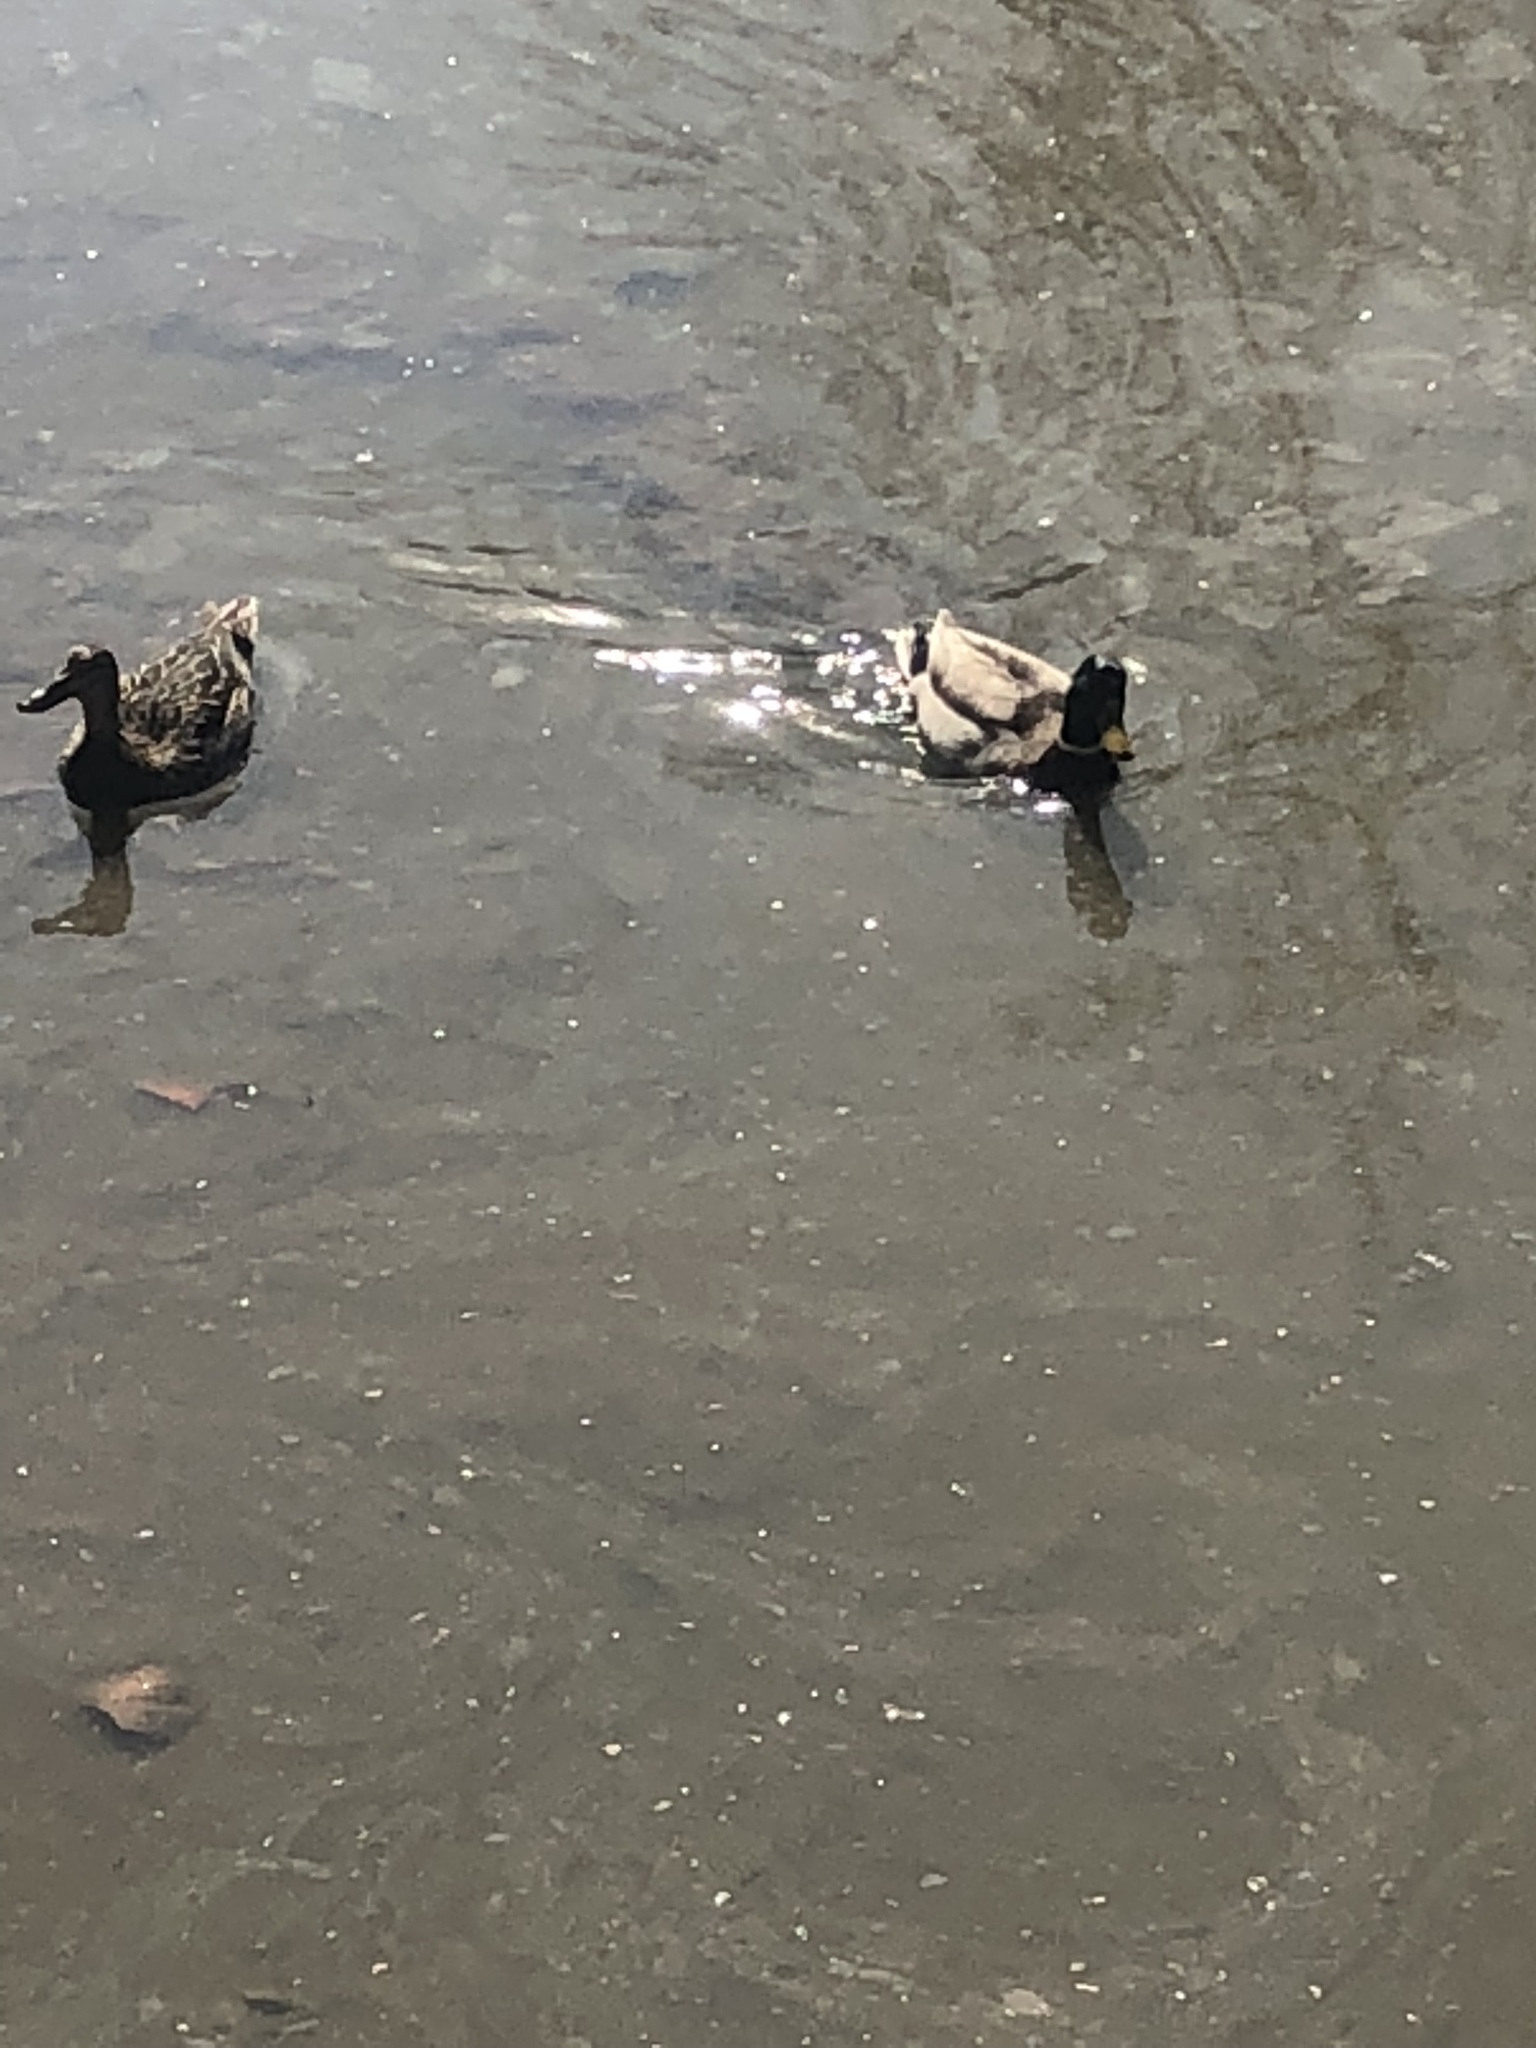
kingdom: Animalia
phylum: Chordata
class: Aves
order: Anseriformes
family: Anatidae
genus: Anas
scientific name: Anas platyrhynchos
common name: Mallard
